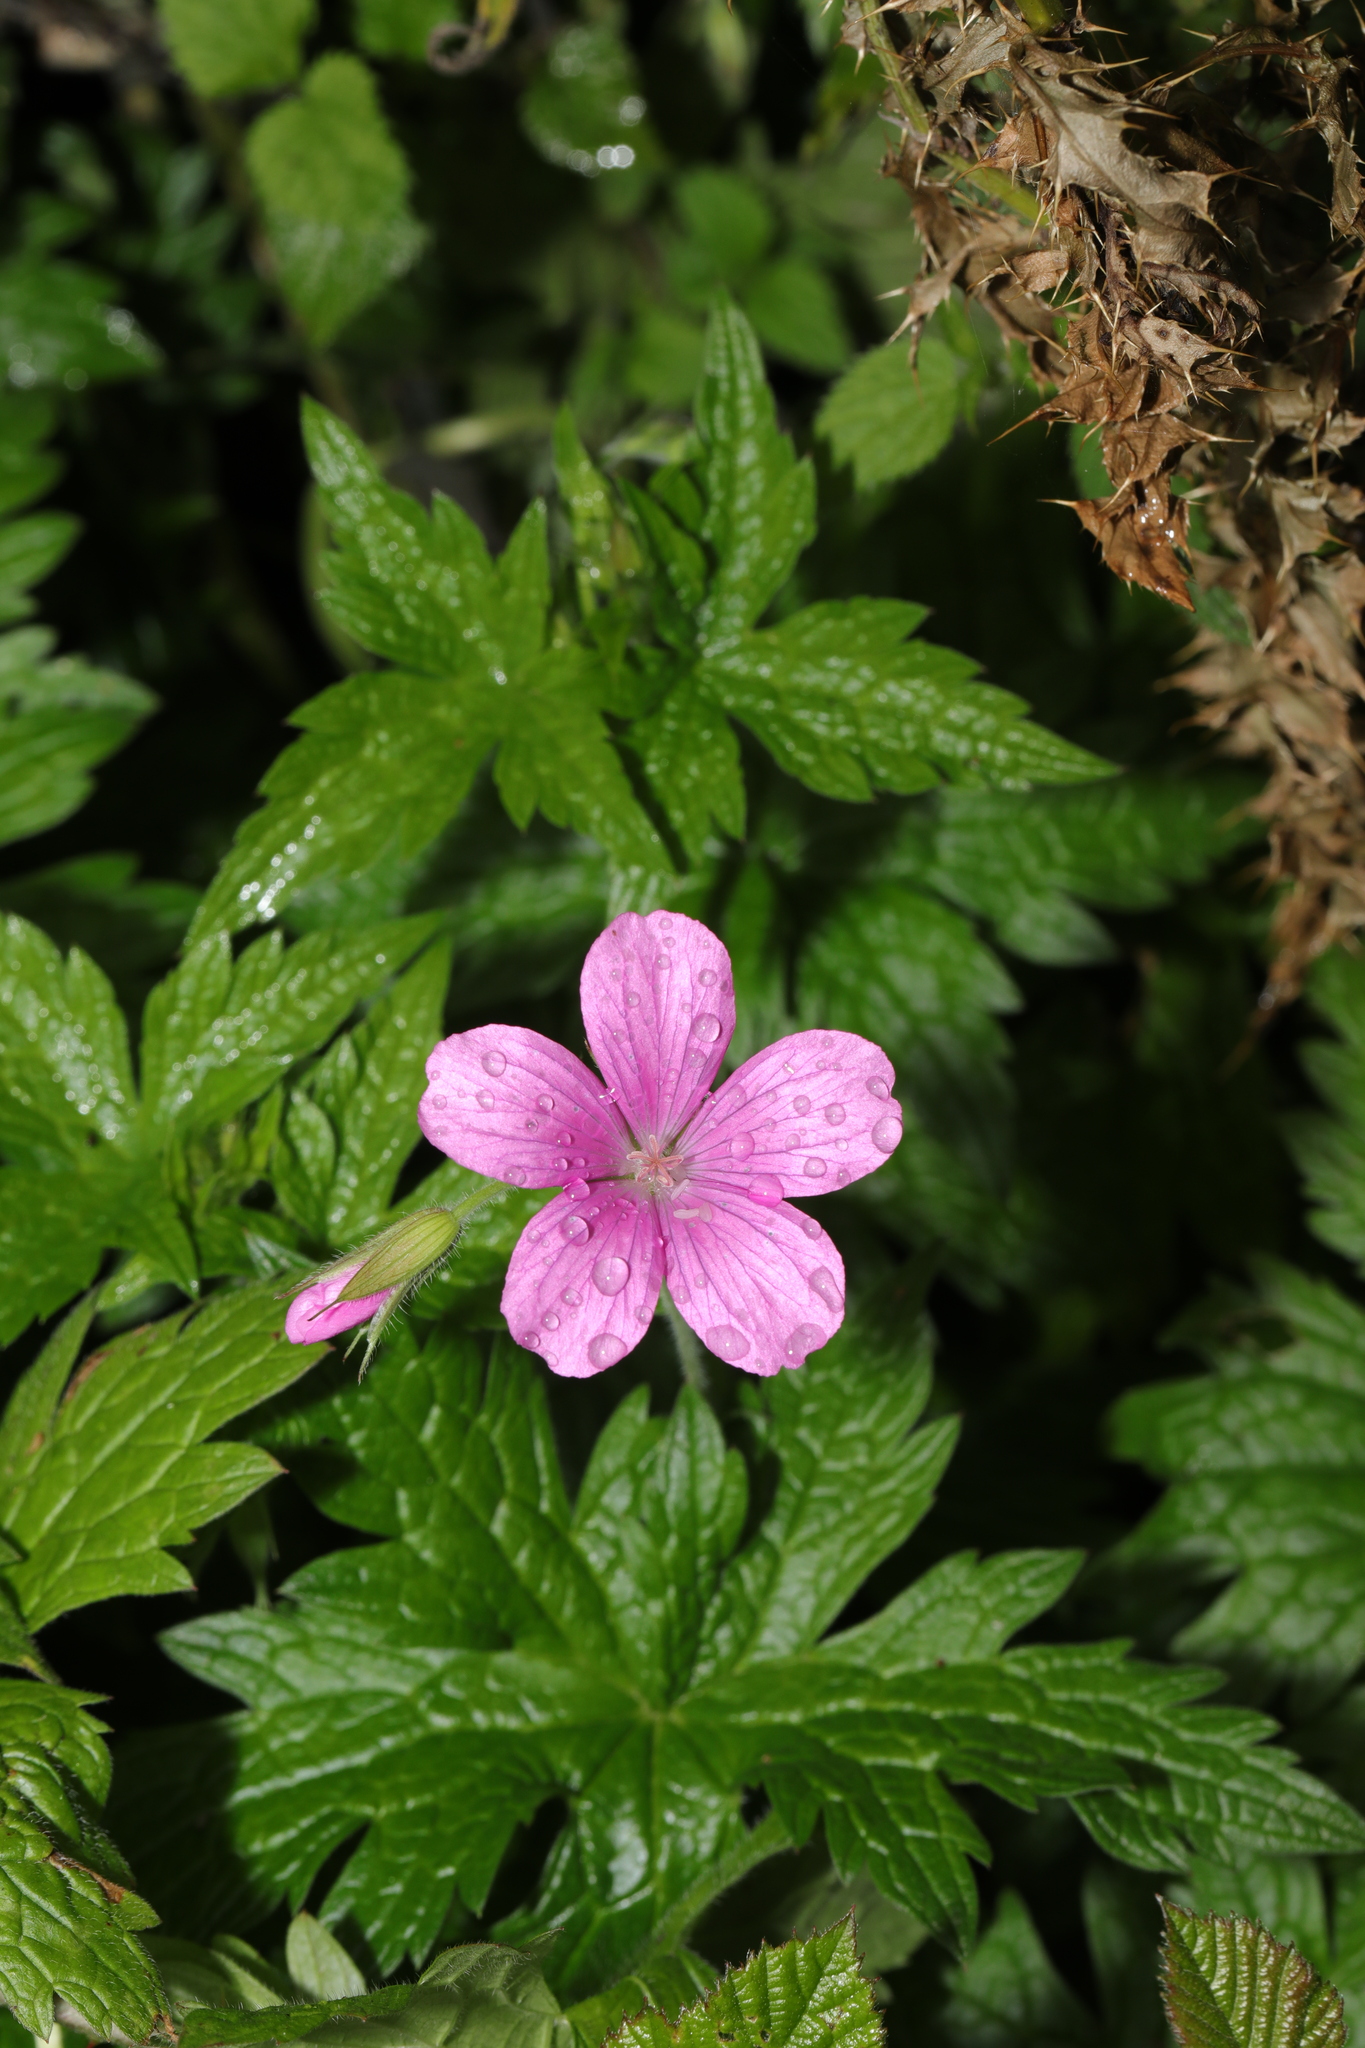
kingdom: Plantae
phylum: Tracheophyta
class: Magnoliopsida
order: Geraniales
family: Geraniaceae
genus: Geranium
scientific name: Geranium oxonianum
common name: Druce's crane's-bill
